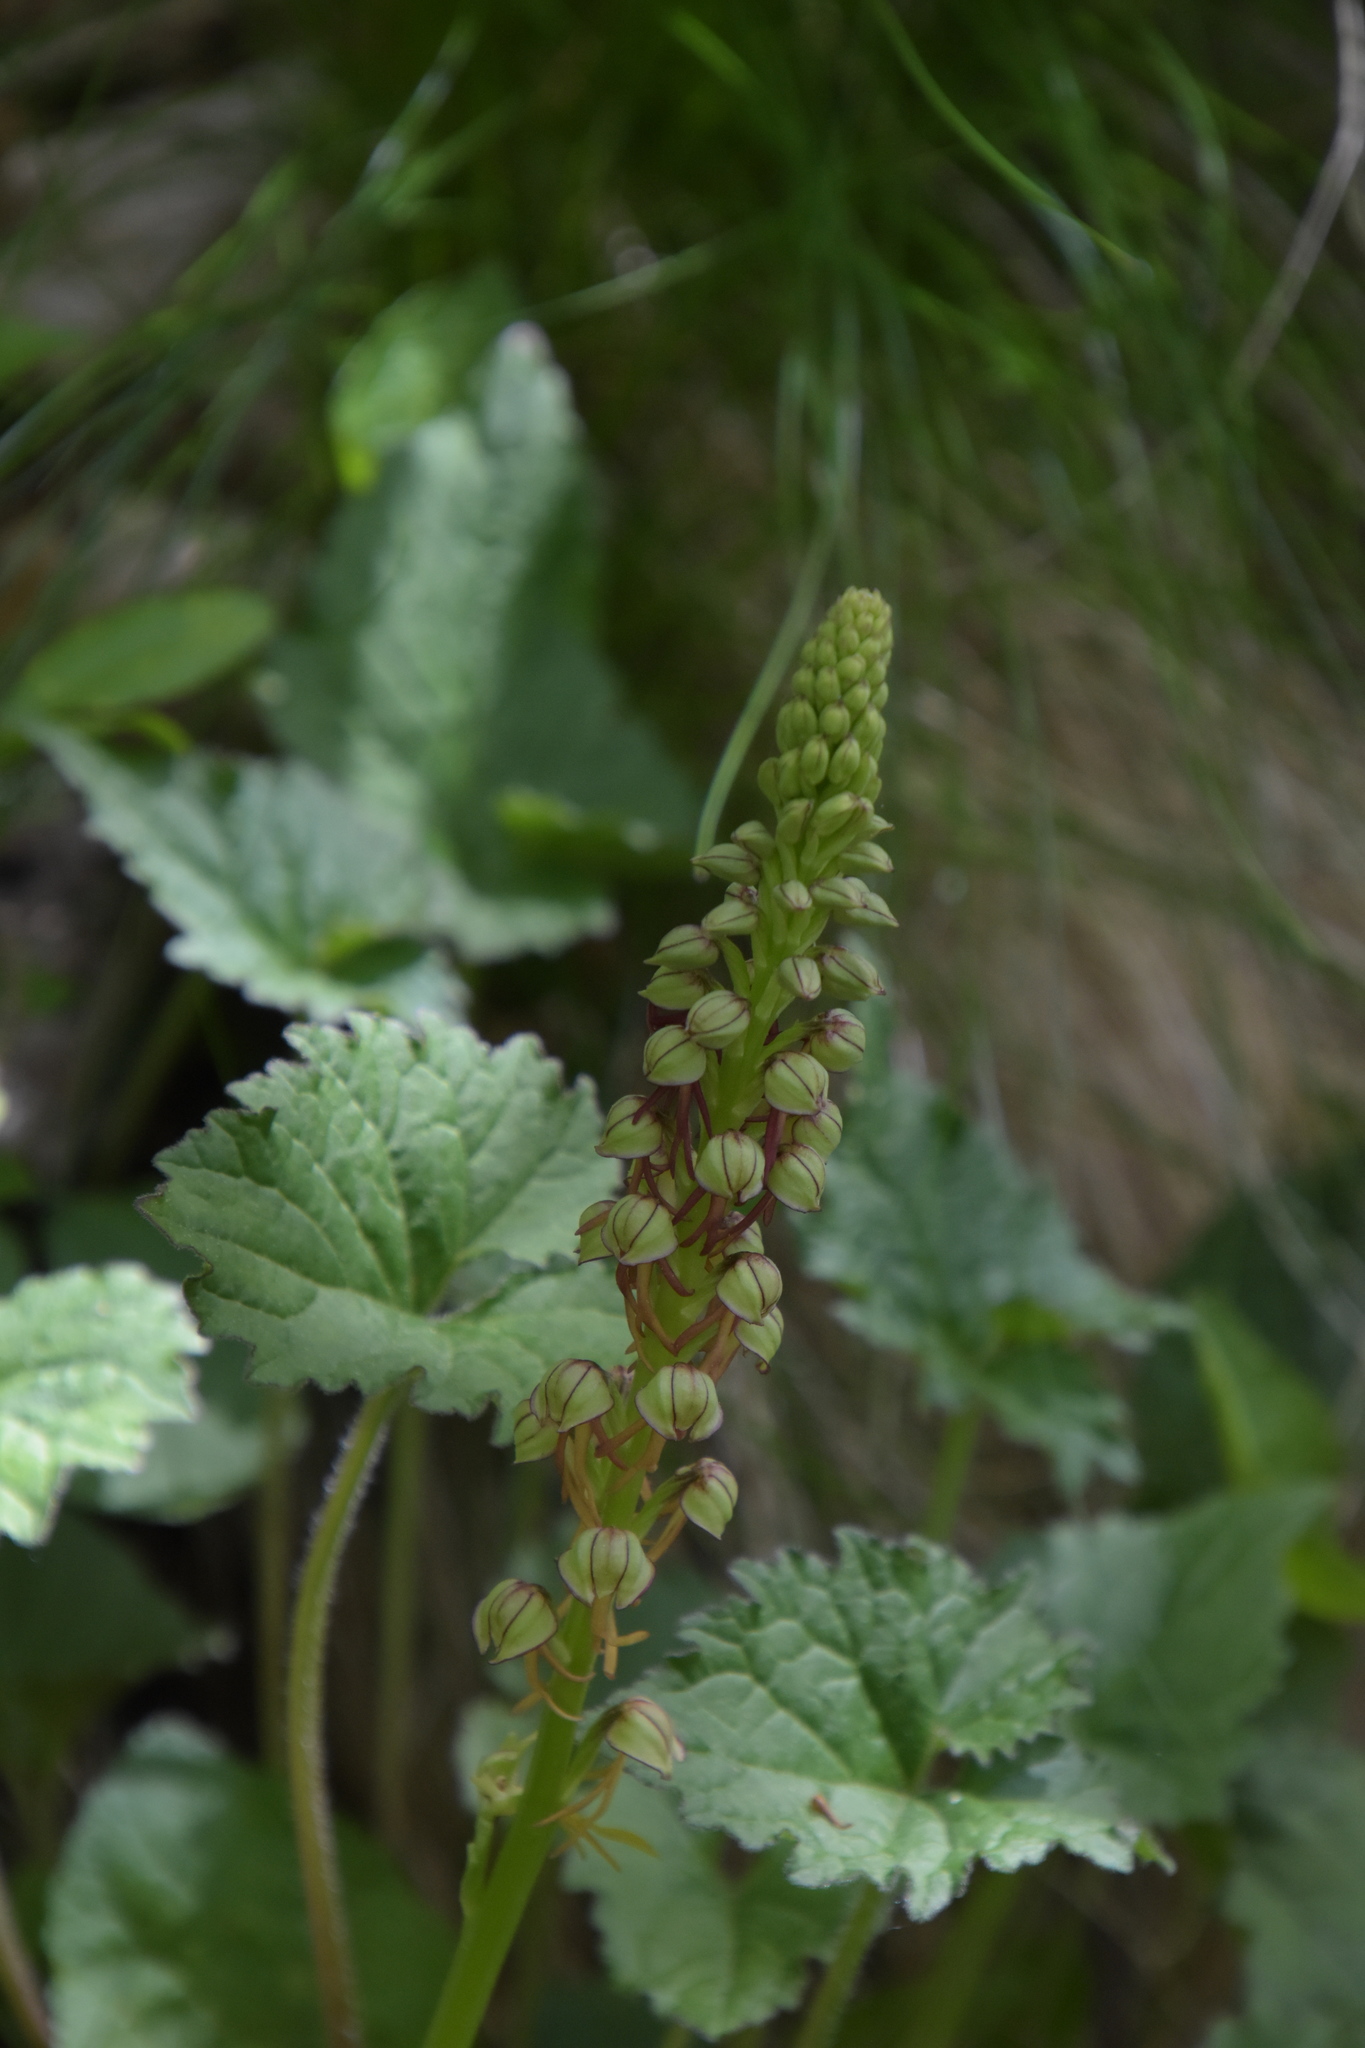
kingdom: Plantae
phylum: Tracheophyta
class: Liliopsida
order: Asparagales
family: Orchidaceae
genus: Orchis
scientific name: Orchis anthropophora
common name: Man orchid
